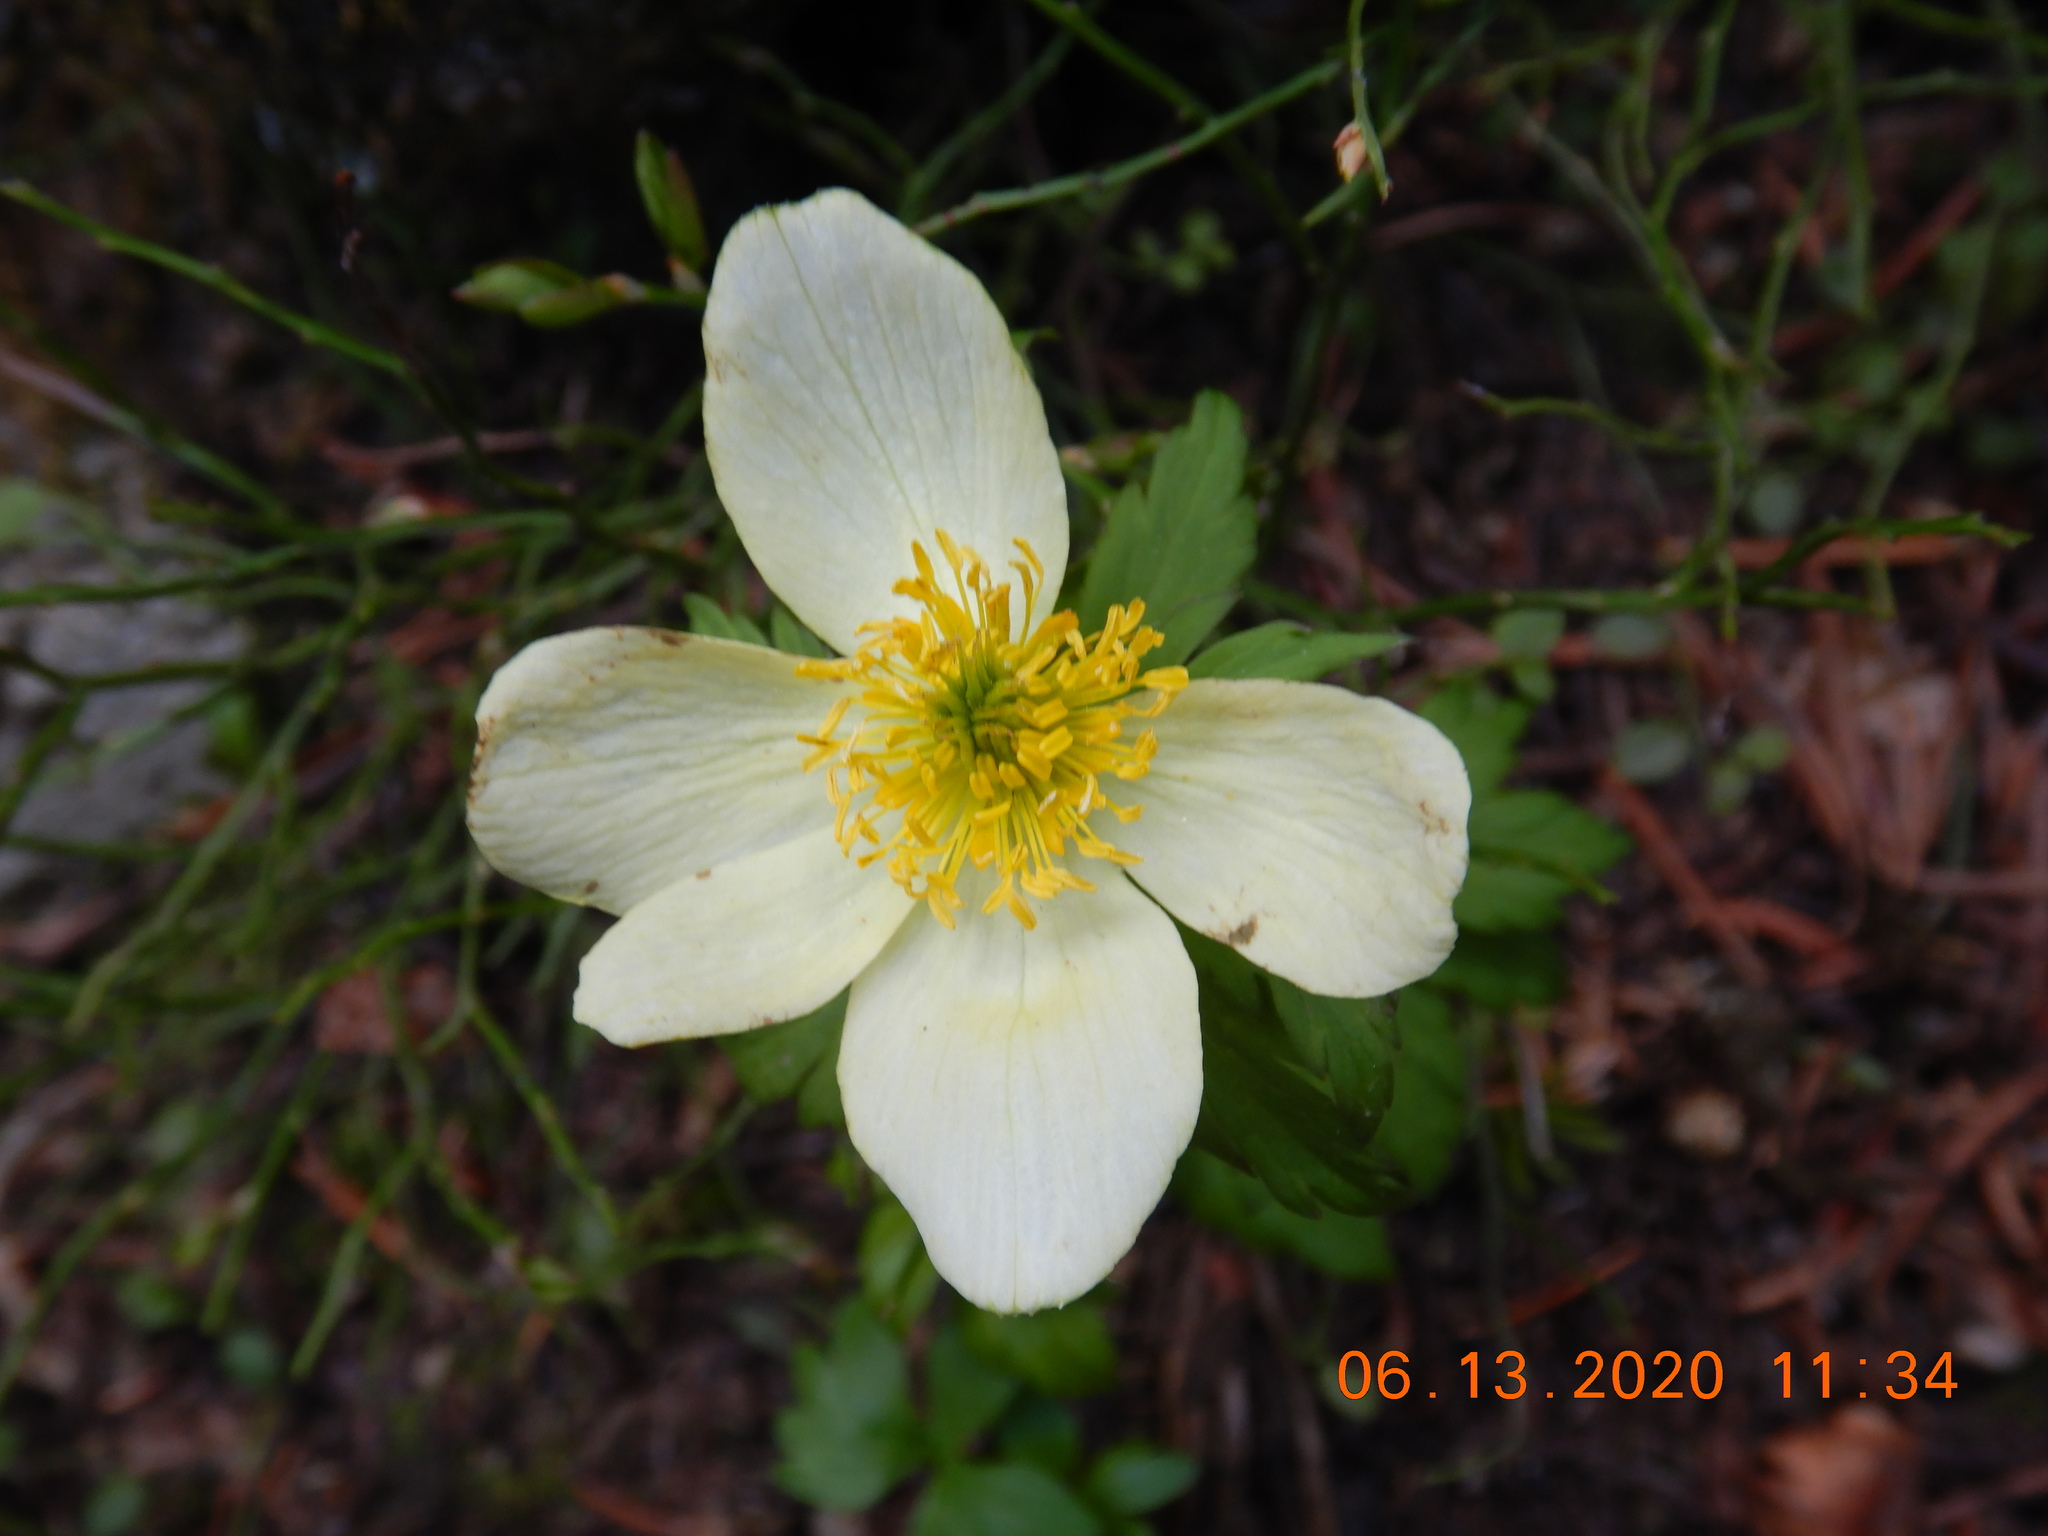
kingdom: Plantae
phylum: Tracheophyta
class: Magnoliopsida
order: Ranunculales
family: Ranunculaceae
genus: Trollius
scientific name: Trollius laxus
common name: American globeflower
